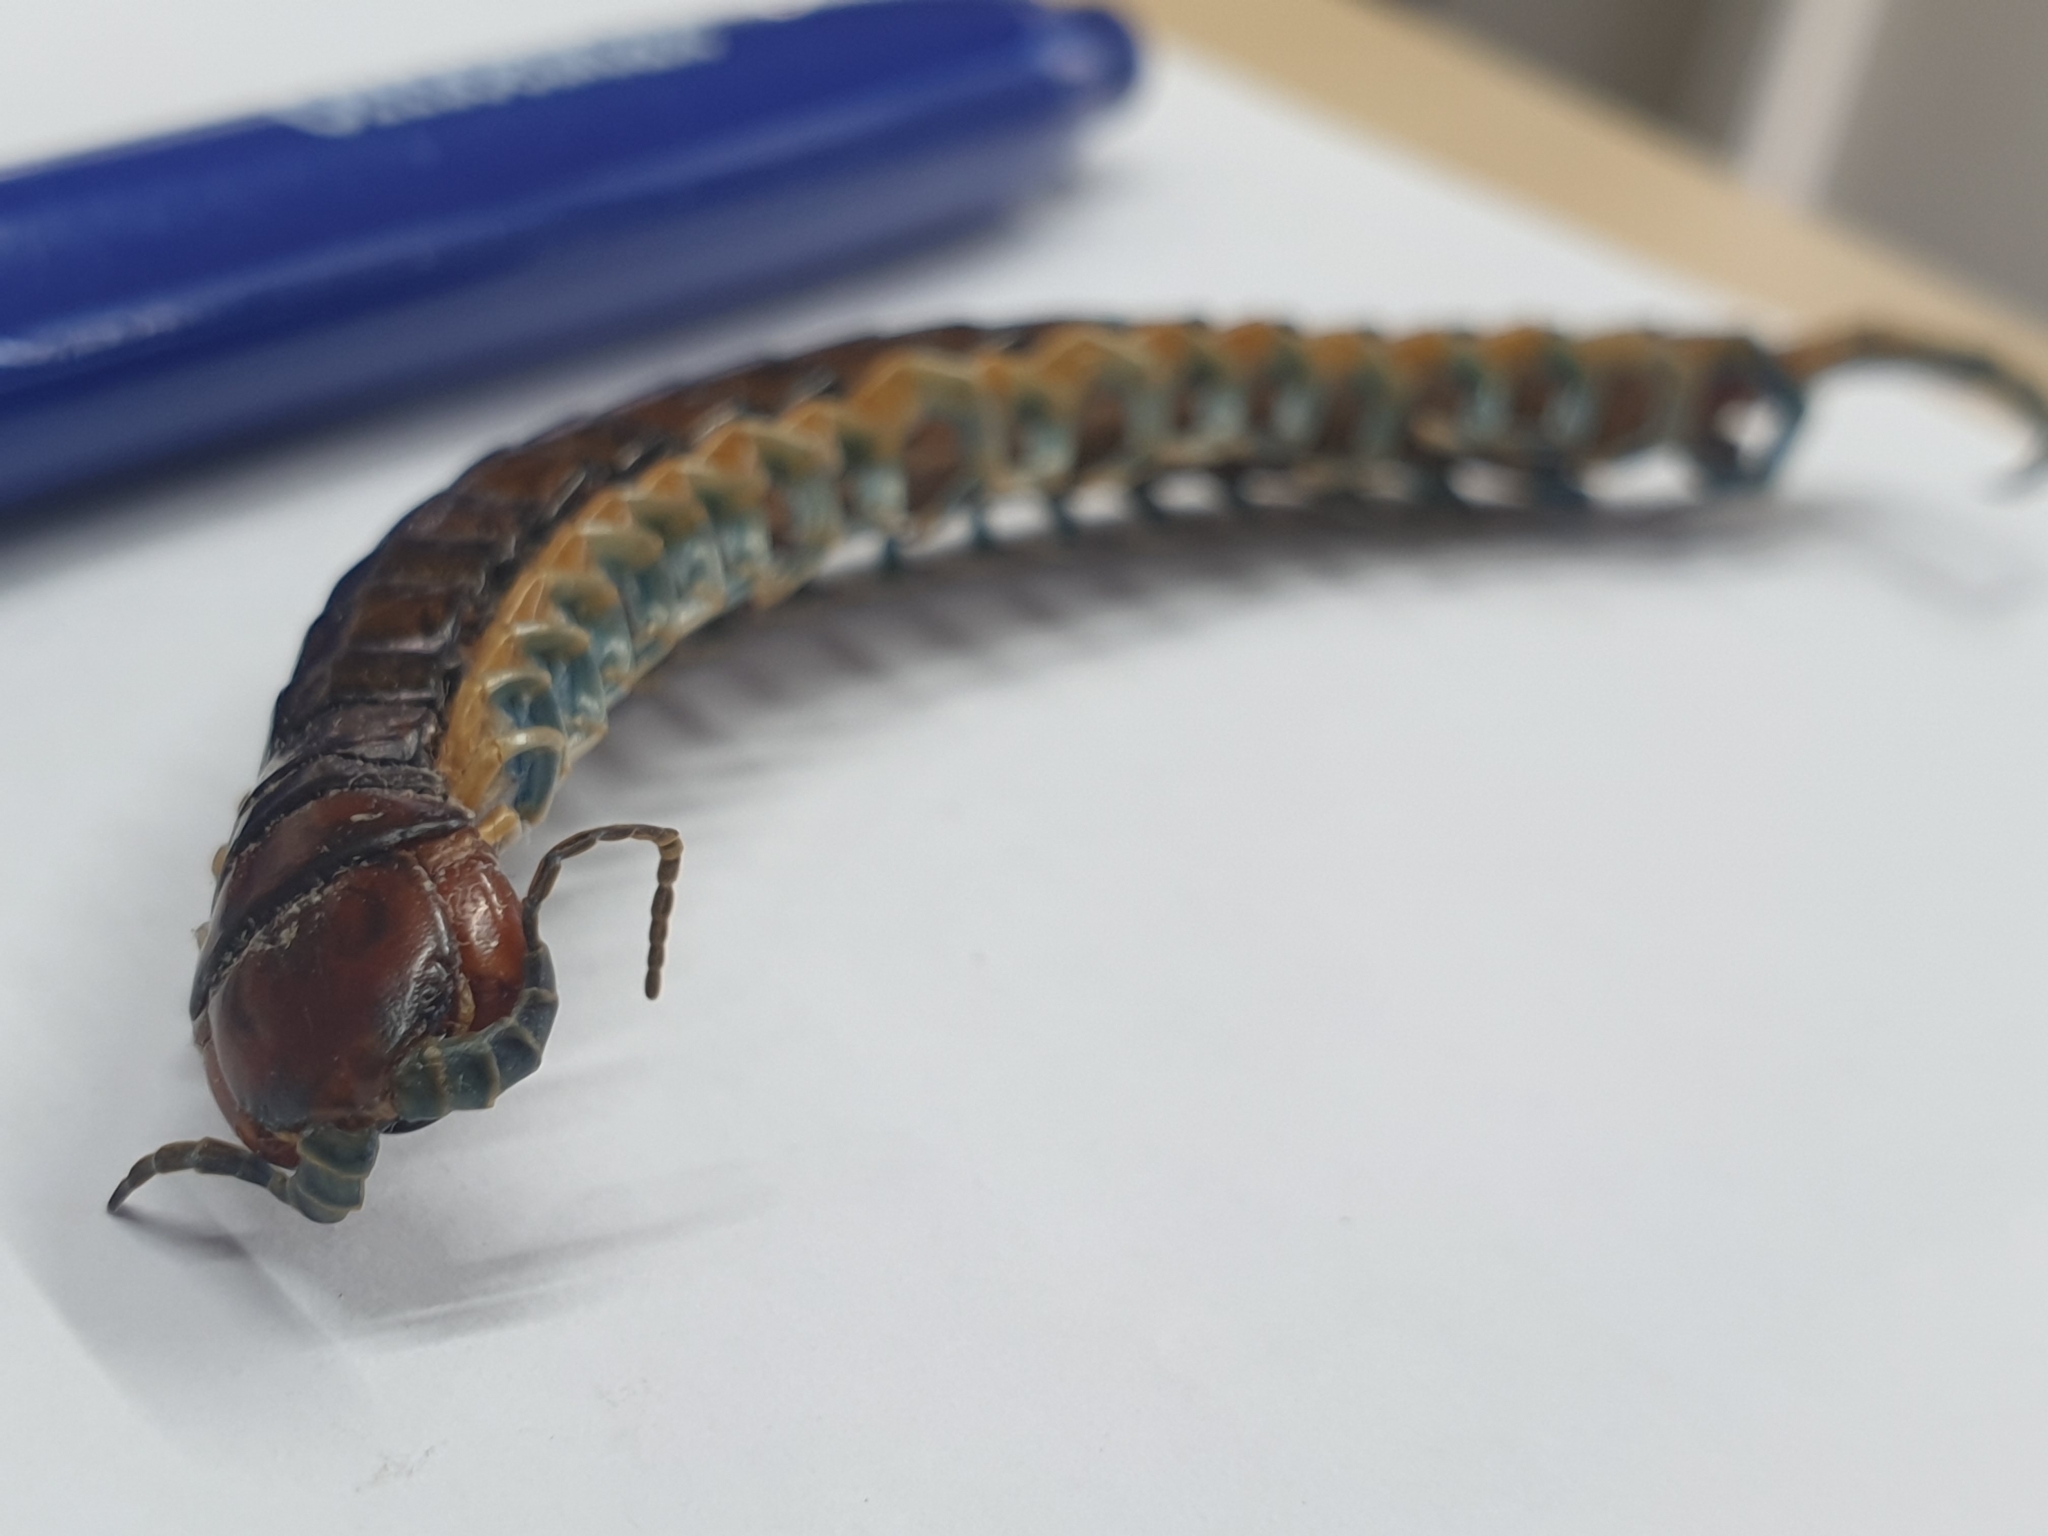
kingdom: Animalia
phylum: Arthropoda
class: Chilopoda
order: Scolopendromorpha
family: Scolopendridae
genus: Cormocephalus
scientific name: Cormocephalus rubriceps
